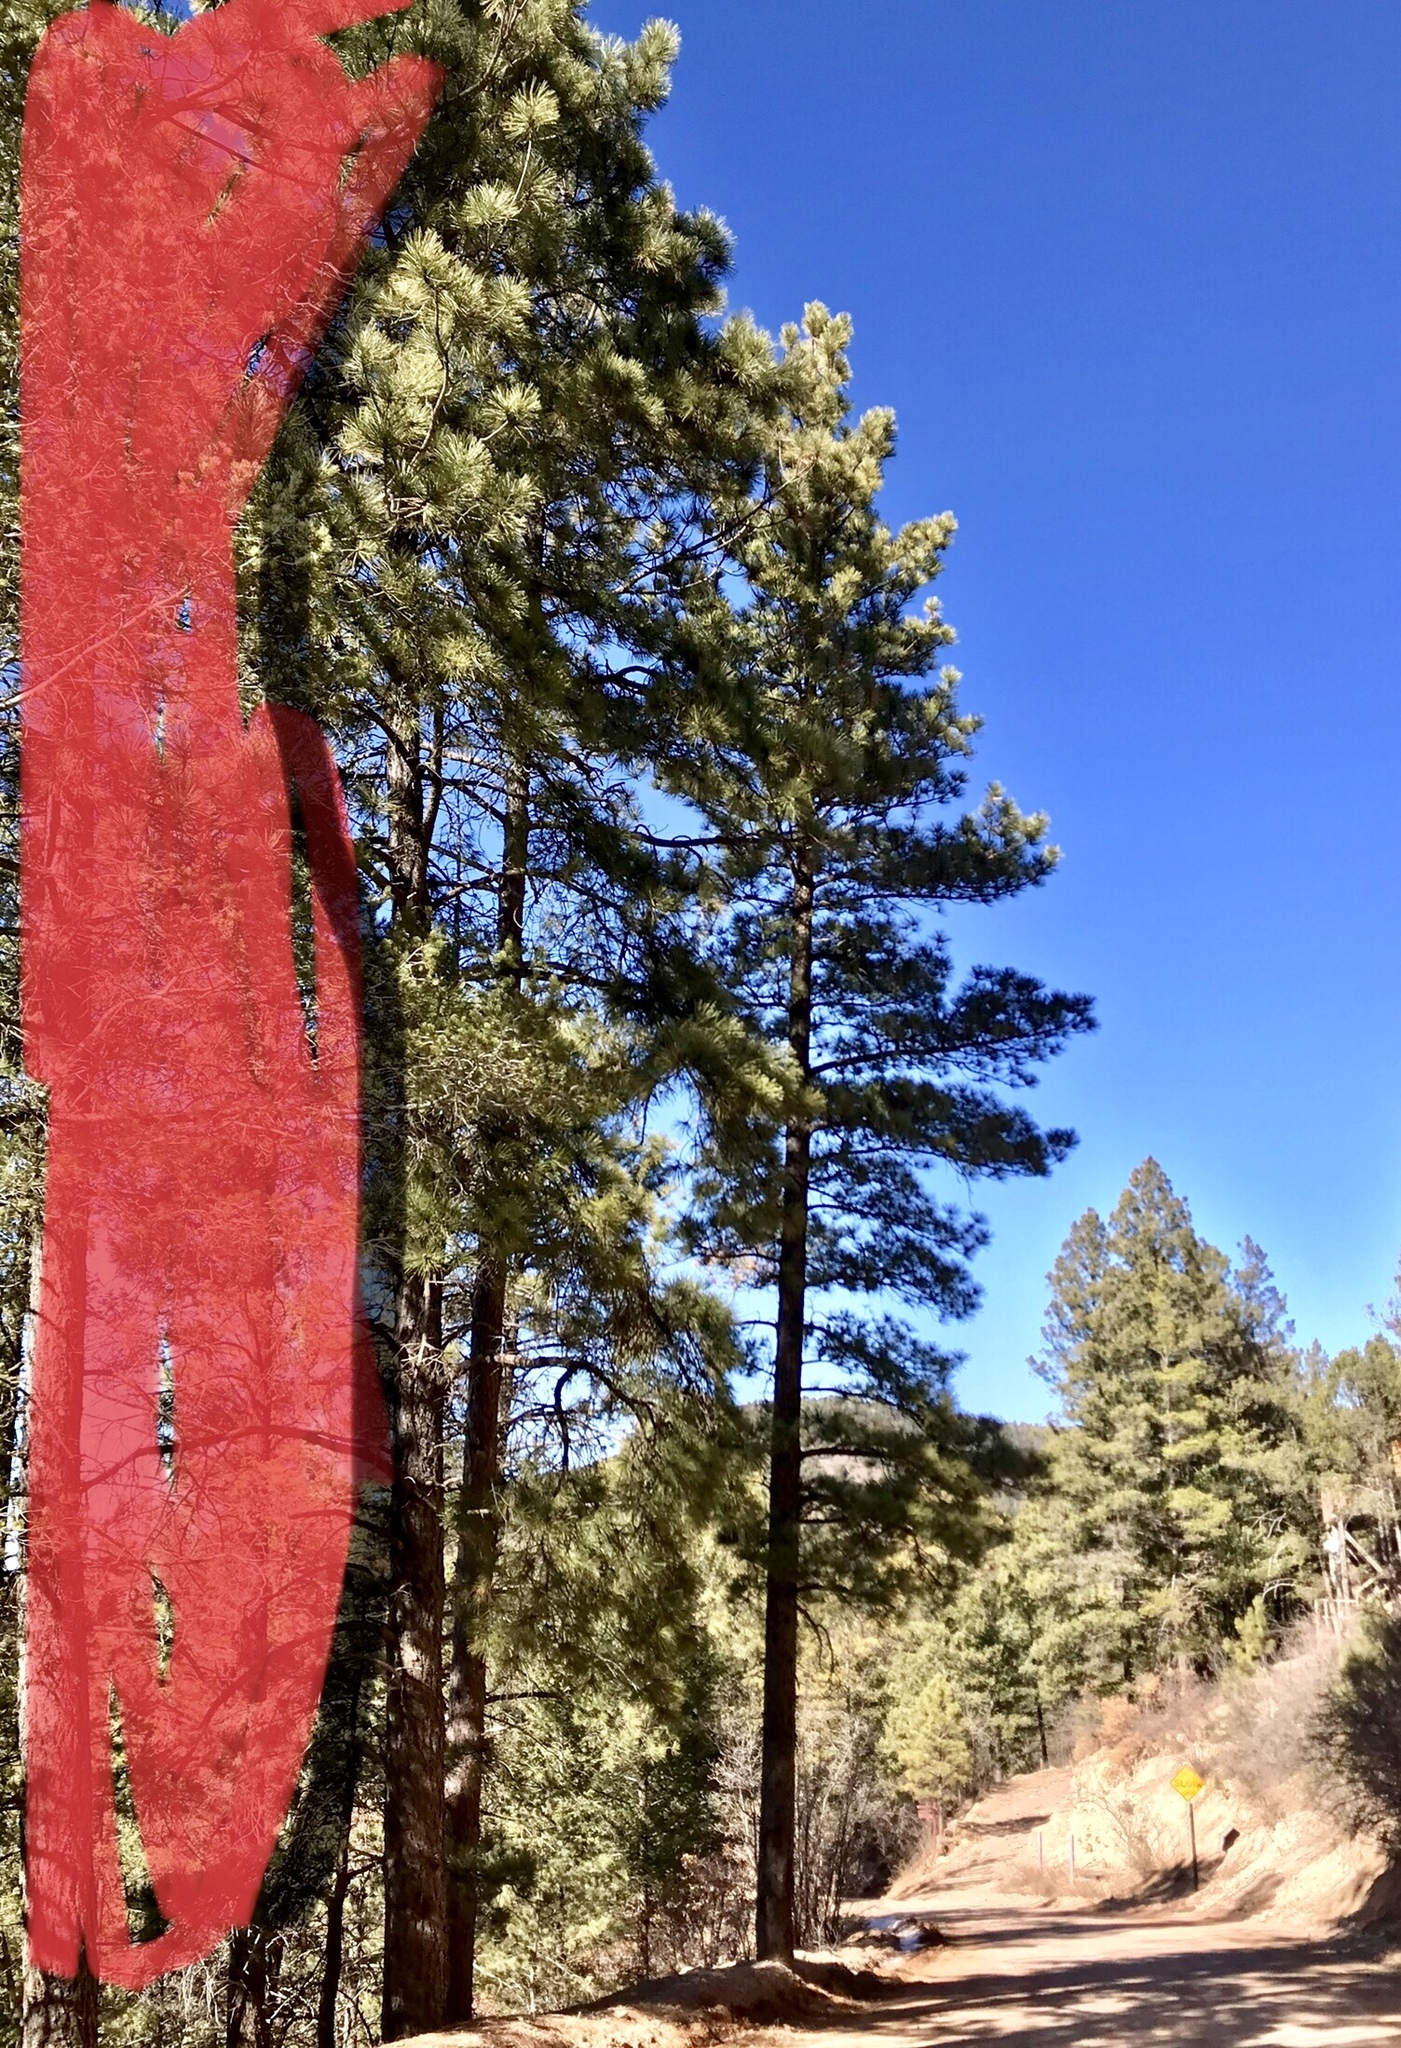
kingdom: Plantae
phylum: Tracheophyta
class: Pinopsida
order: Pinales
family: Pinaceae
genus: Pinus
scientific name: Pinus ponderosa
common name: Western yellow-pine
